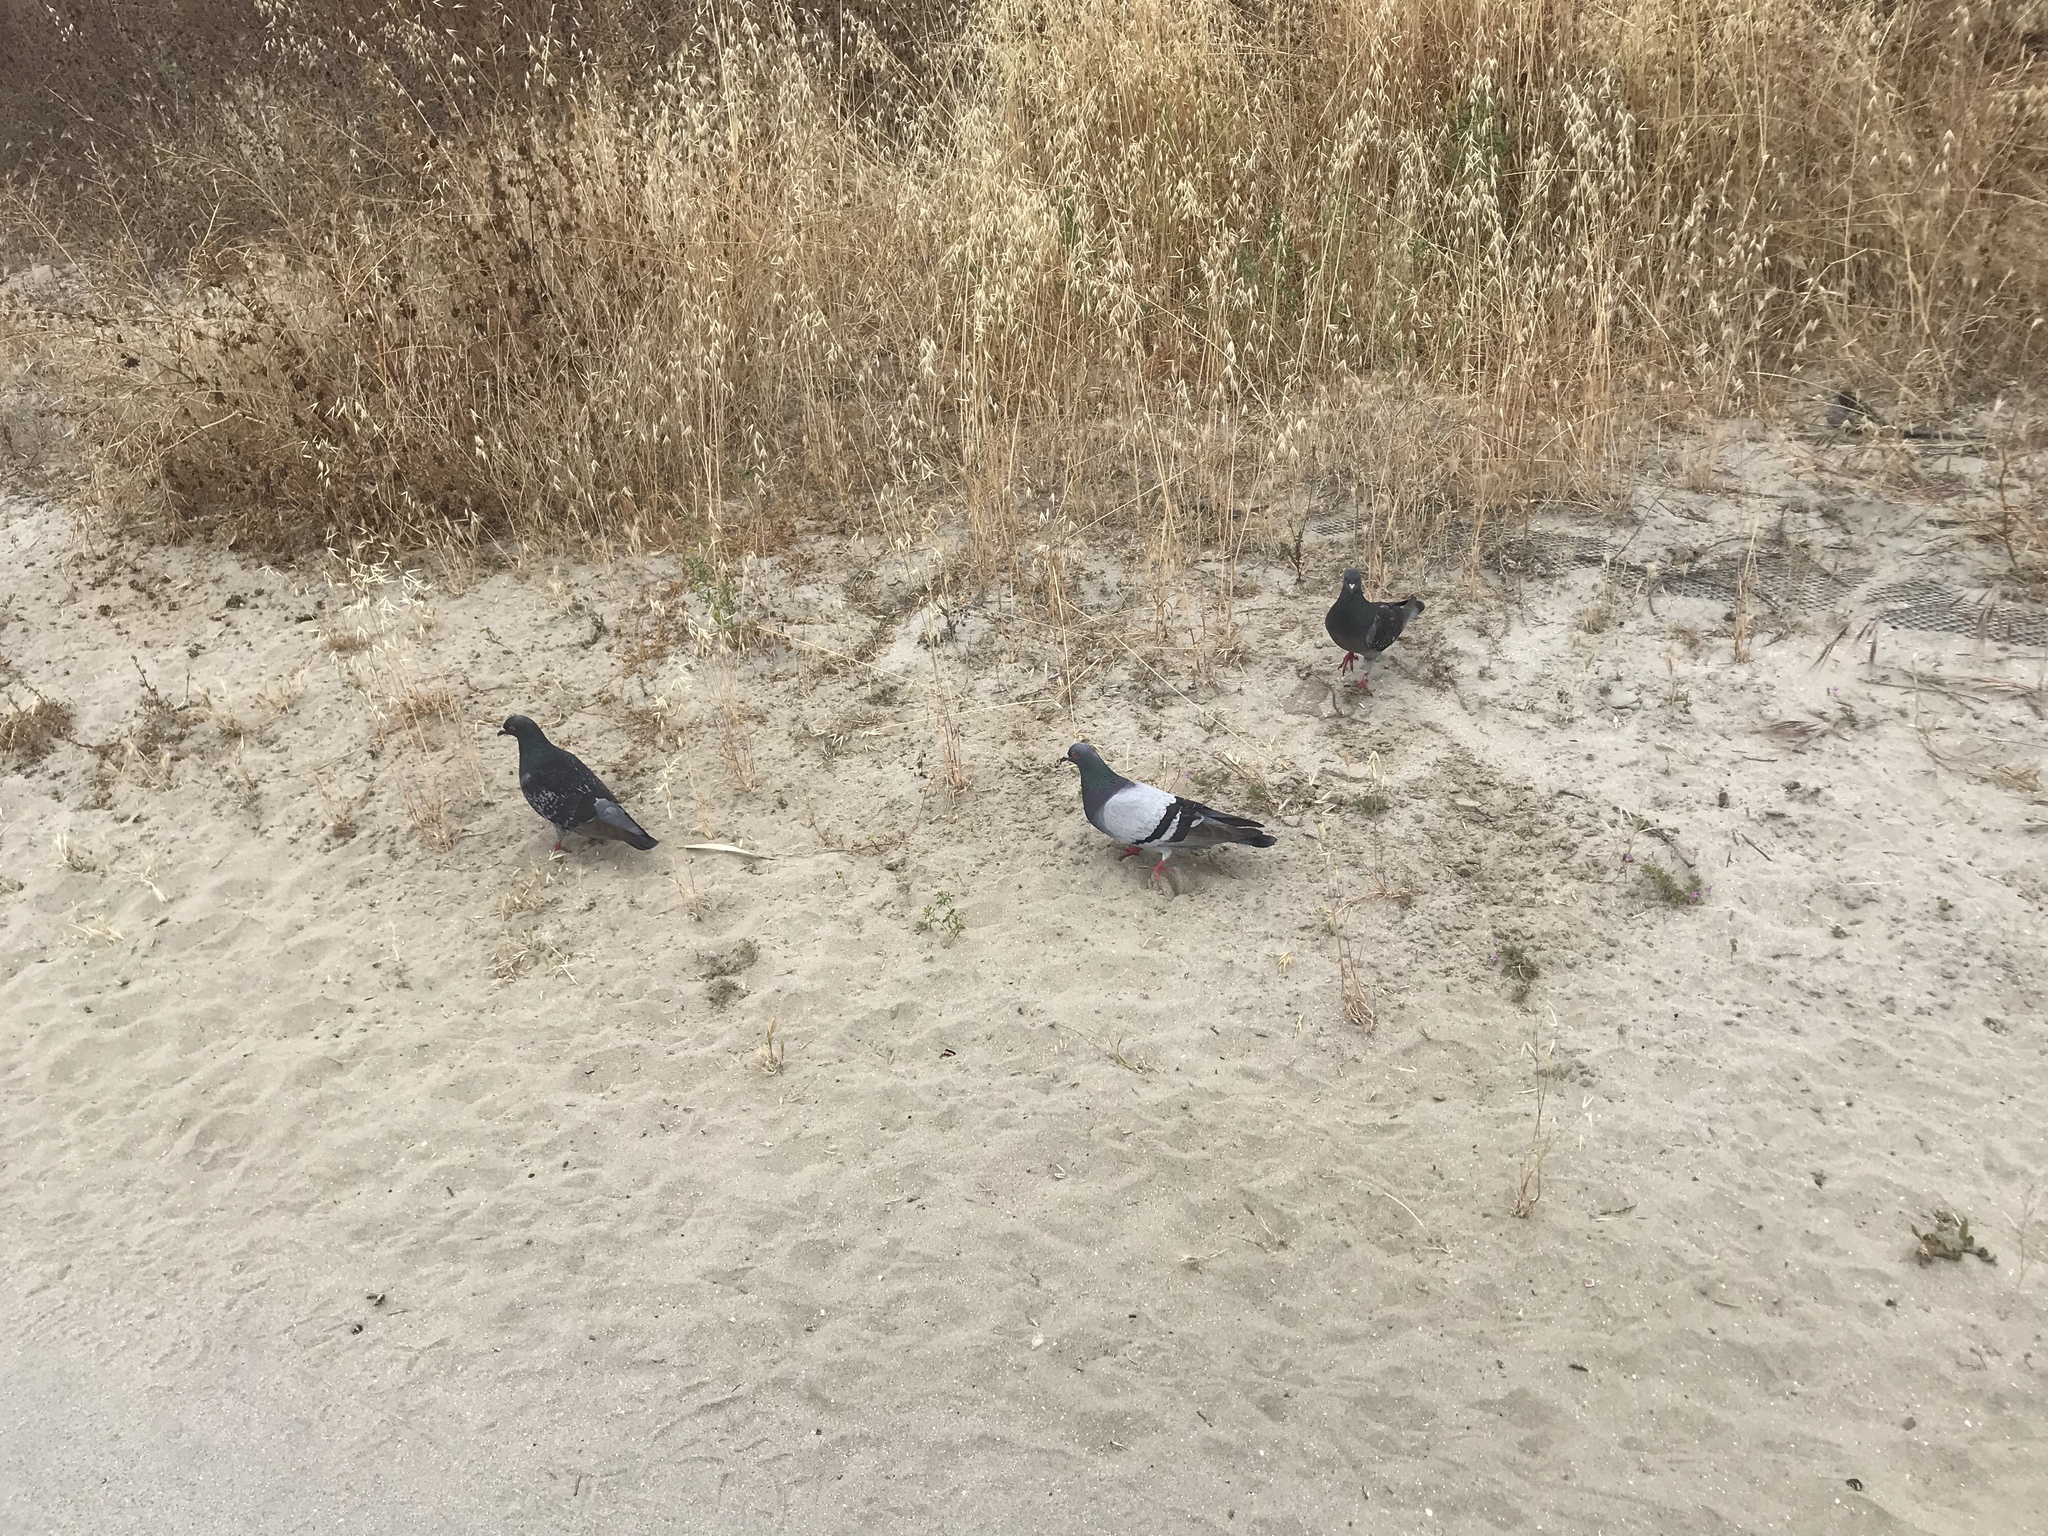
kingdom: Animalia
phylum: Chordata
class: Aves
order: Columbiformes
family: Columbidae
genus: Columba
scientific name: Columba livia
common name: Rock pigeon
